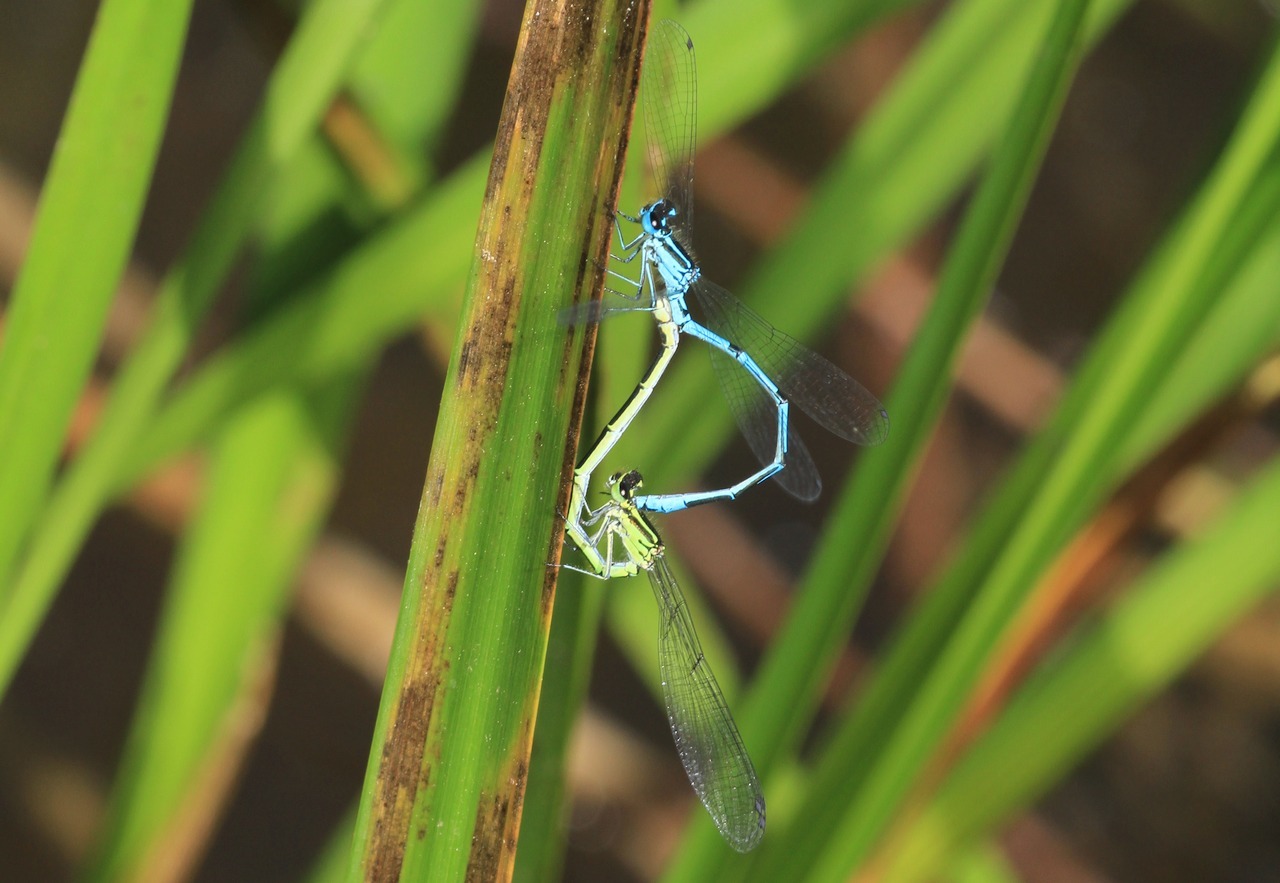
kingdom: Animalia
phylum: Arthropoda
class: Insecta
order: Odonata
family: Coenagrionidae
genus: Coenagrion
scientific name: Coenagrion puella
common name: Azure damselfly
